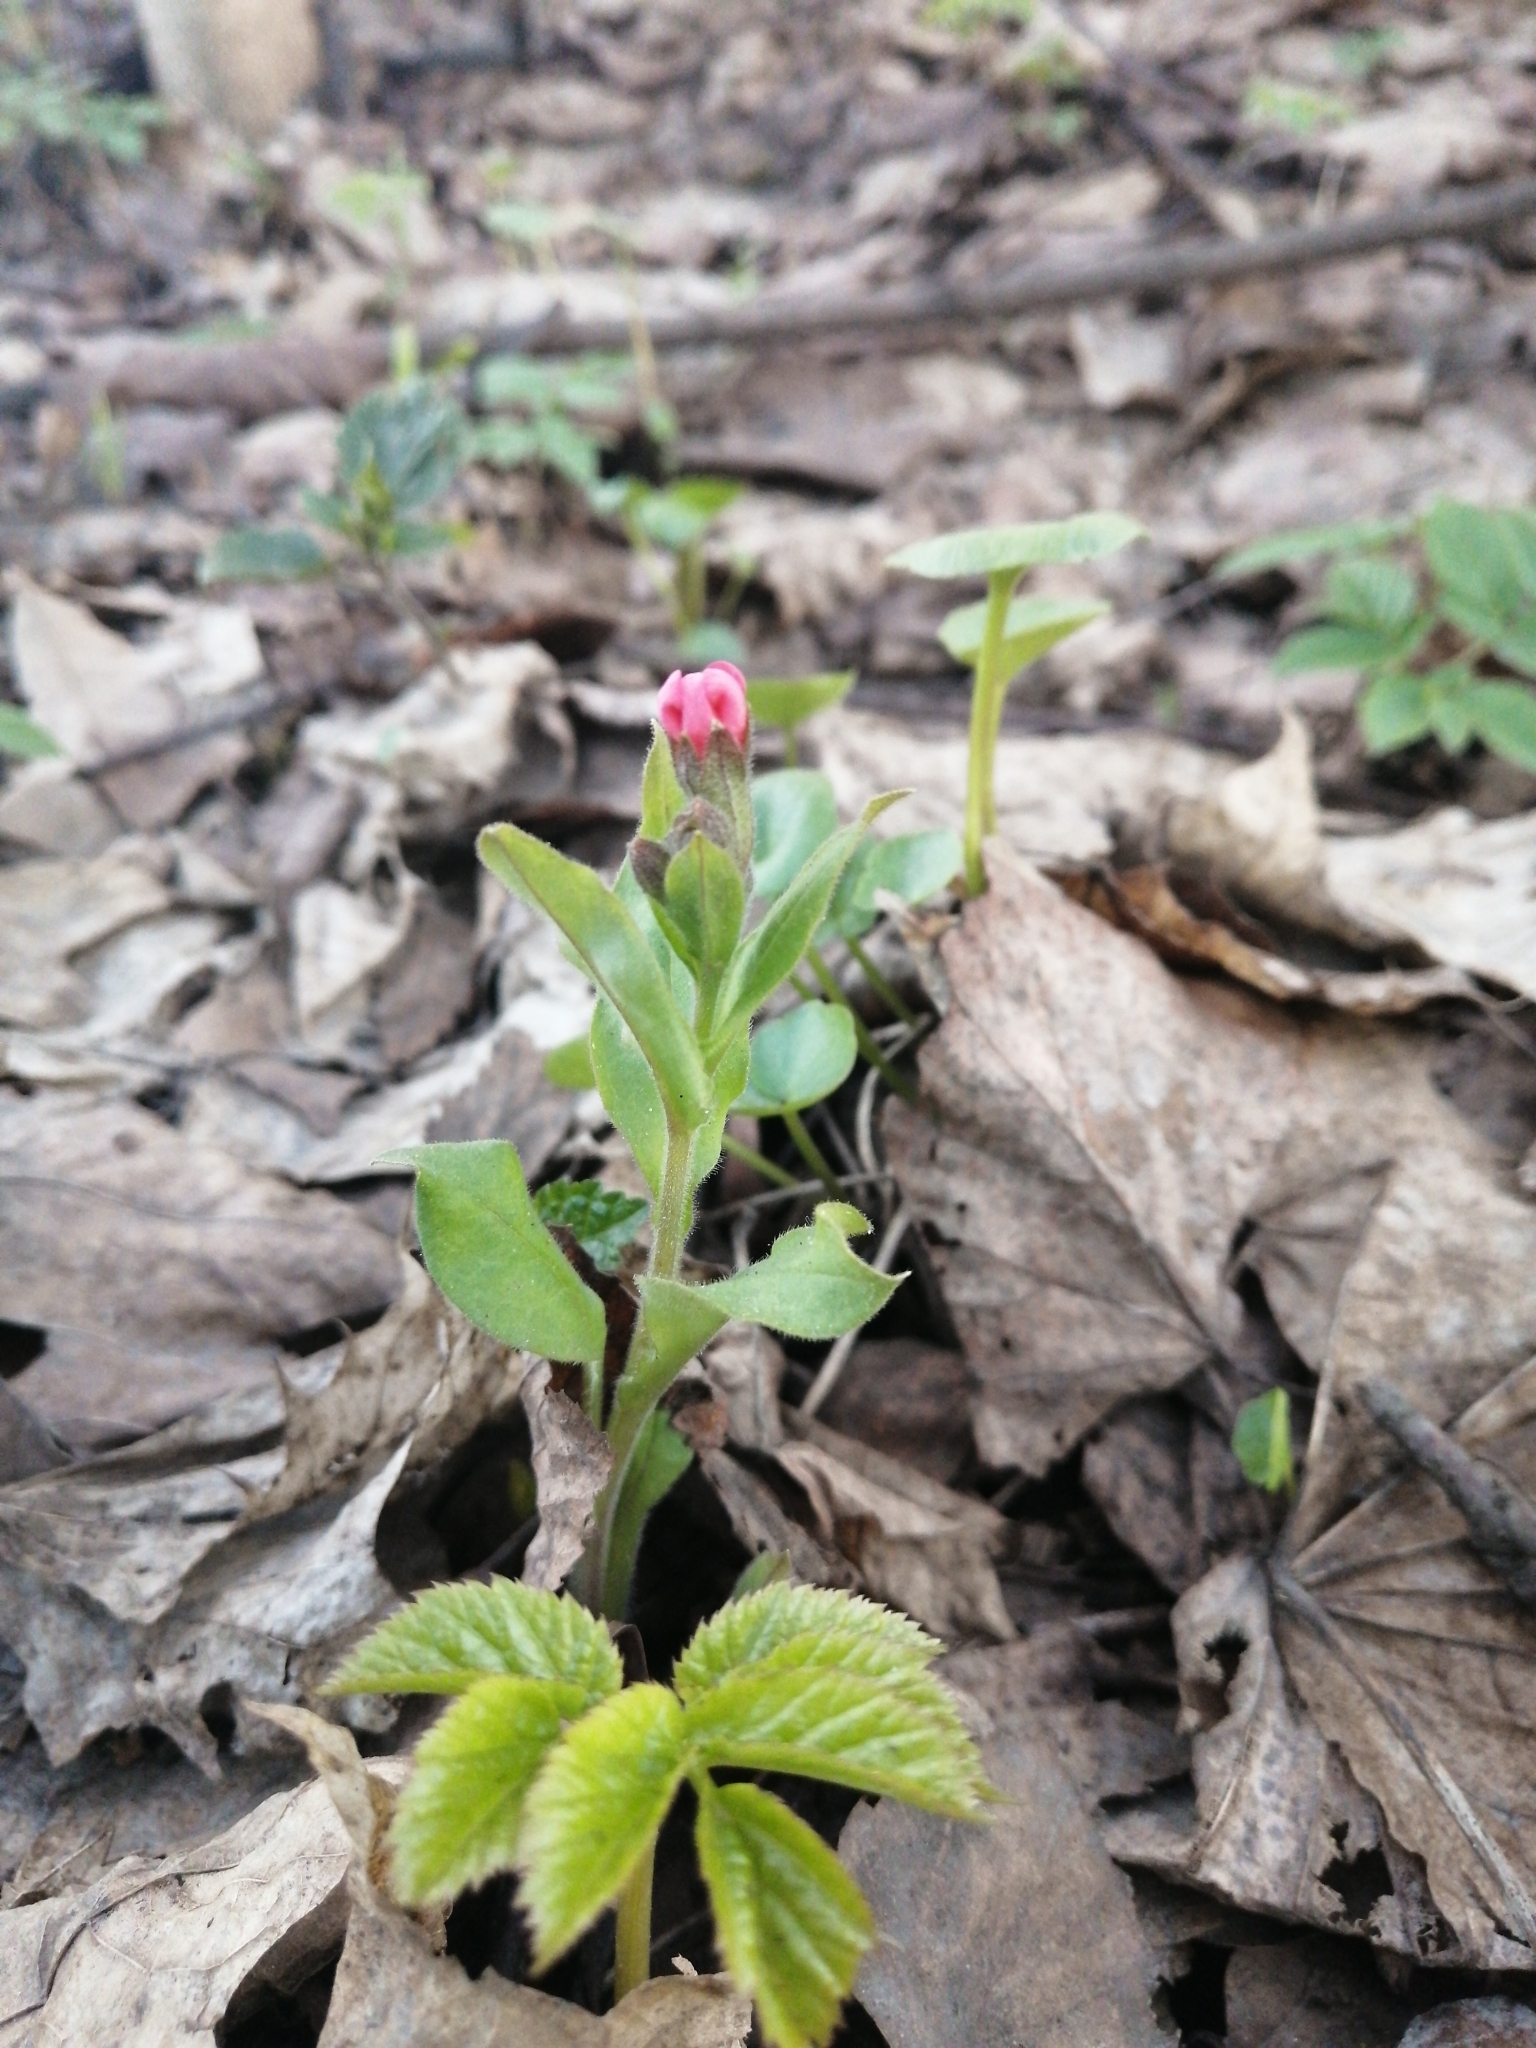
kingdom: Plantae
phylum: Tracheophyta
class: Magnoliopsida
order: Boraginales
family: Boraginaceae
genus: Pulmonaria
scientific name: Pulmonaria obscura
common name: Suffolk lungwort
